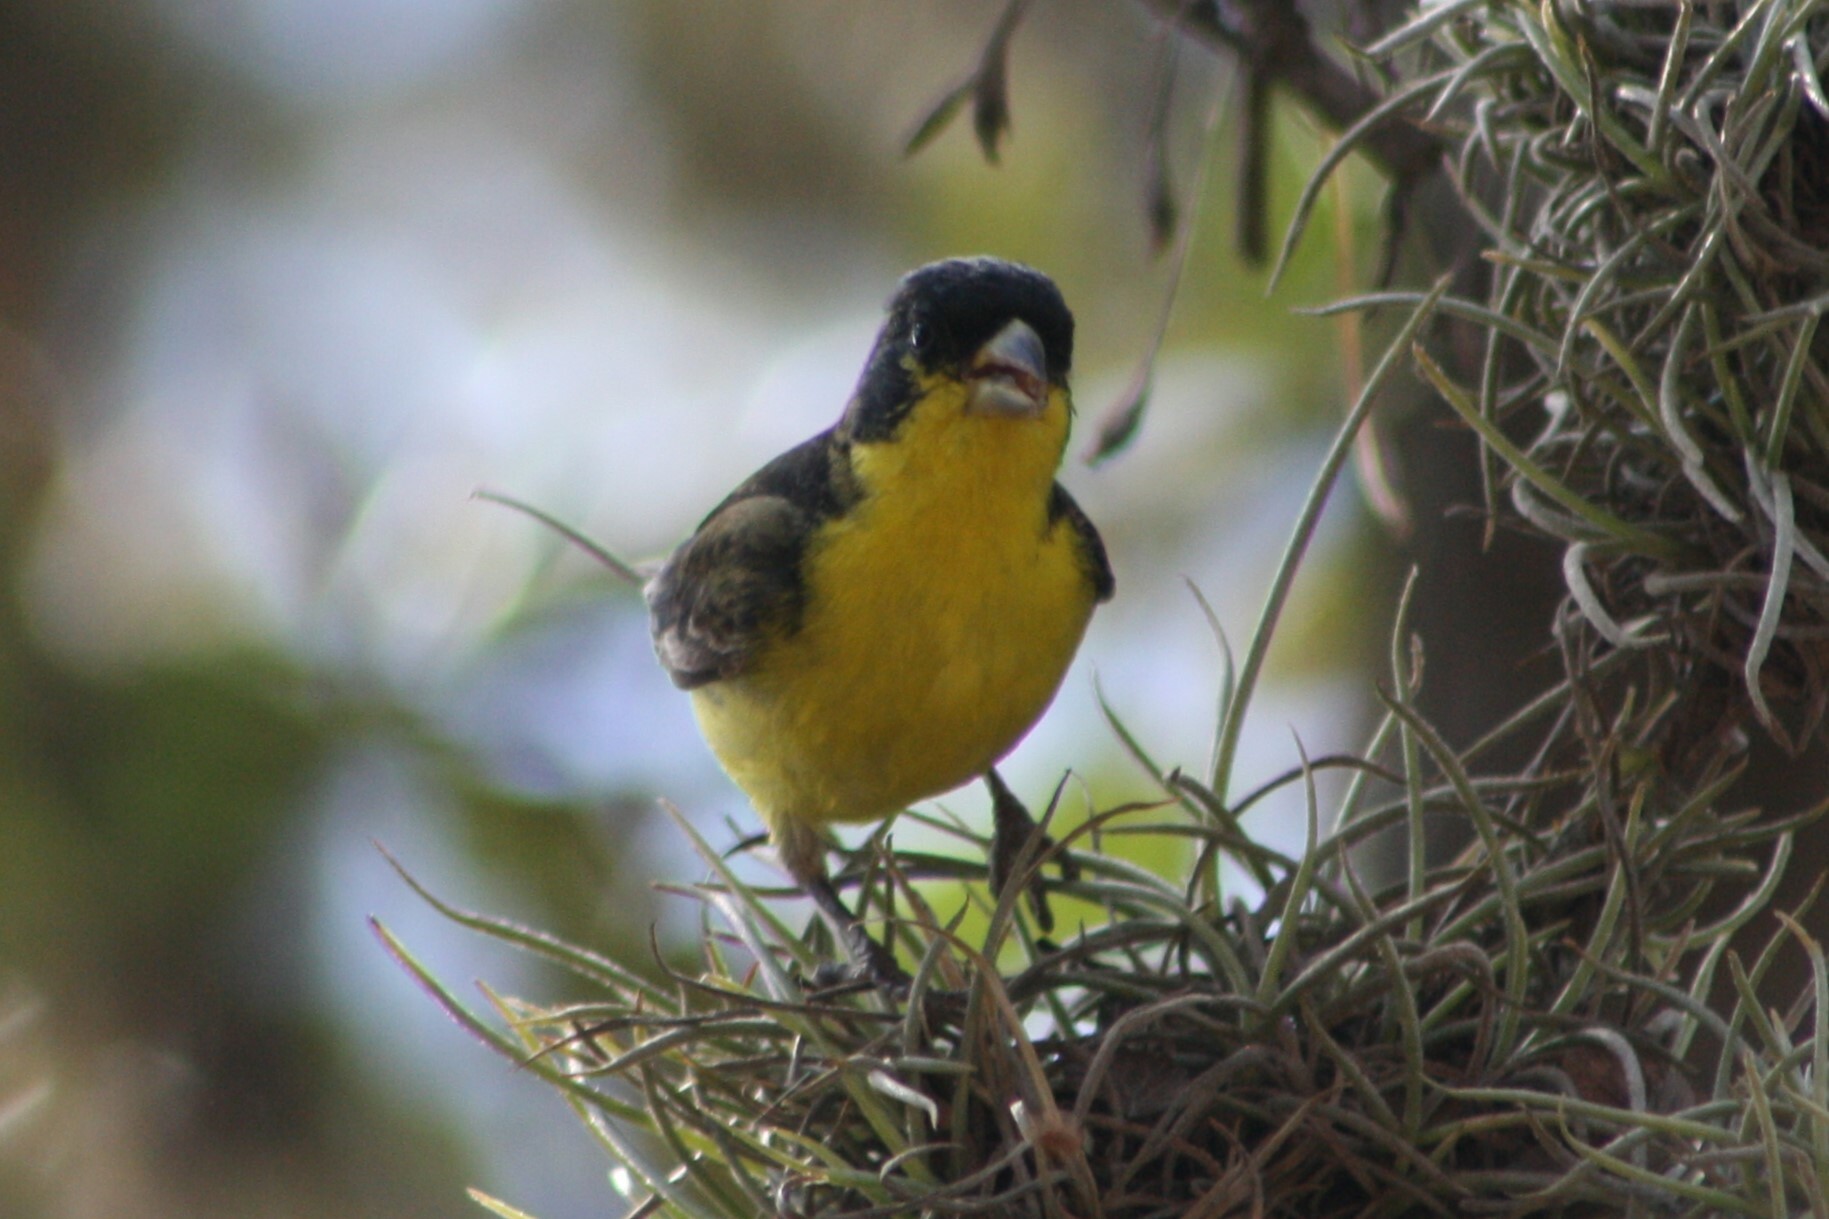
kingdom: Animalia
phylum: Chordata
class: Aves
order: Passeriformes
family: Fringillidae
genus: Spinus
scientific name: Spinus psaltria
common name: Lesser goldfinch
